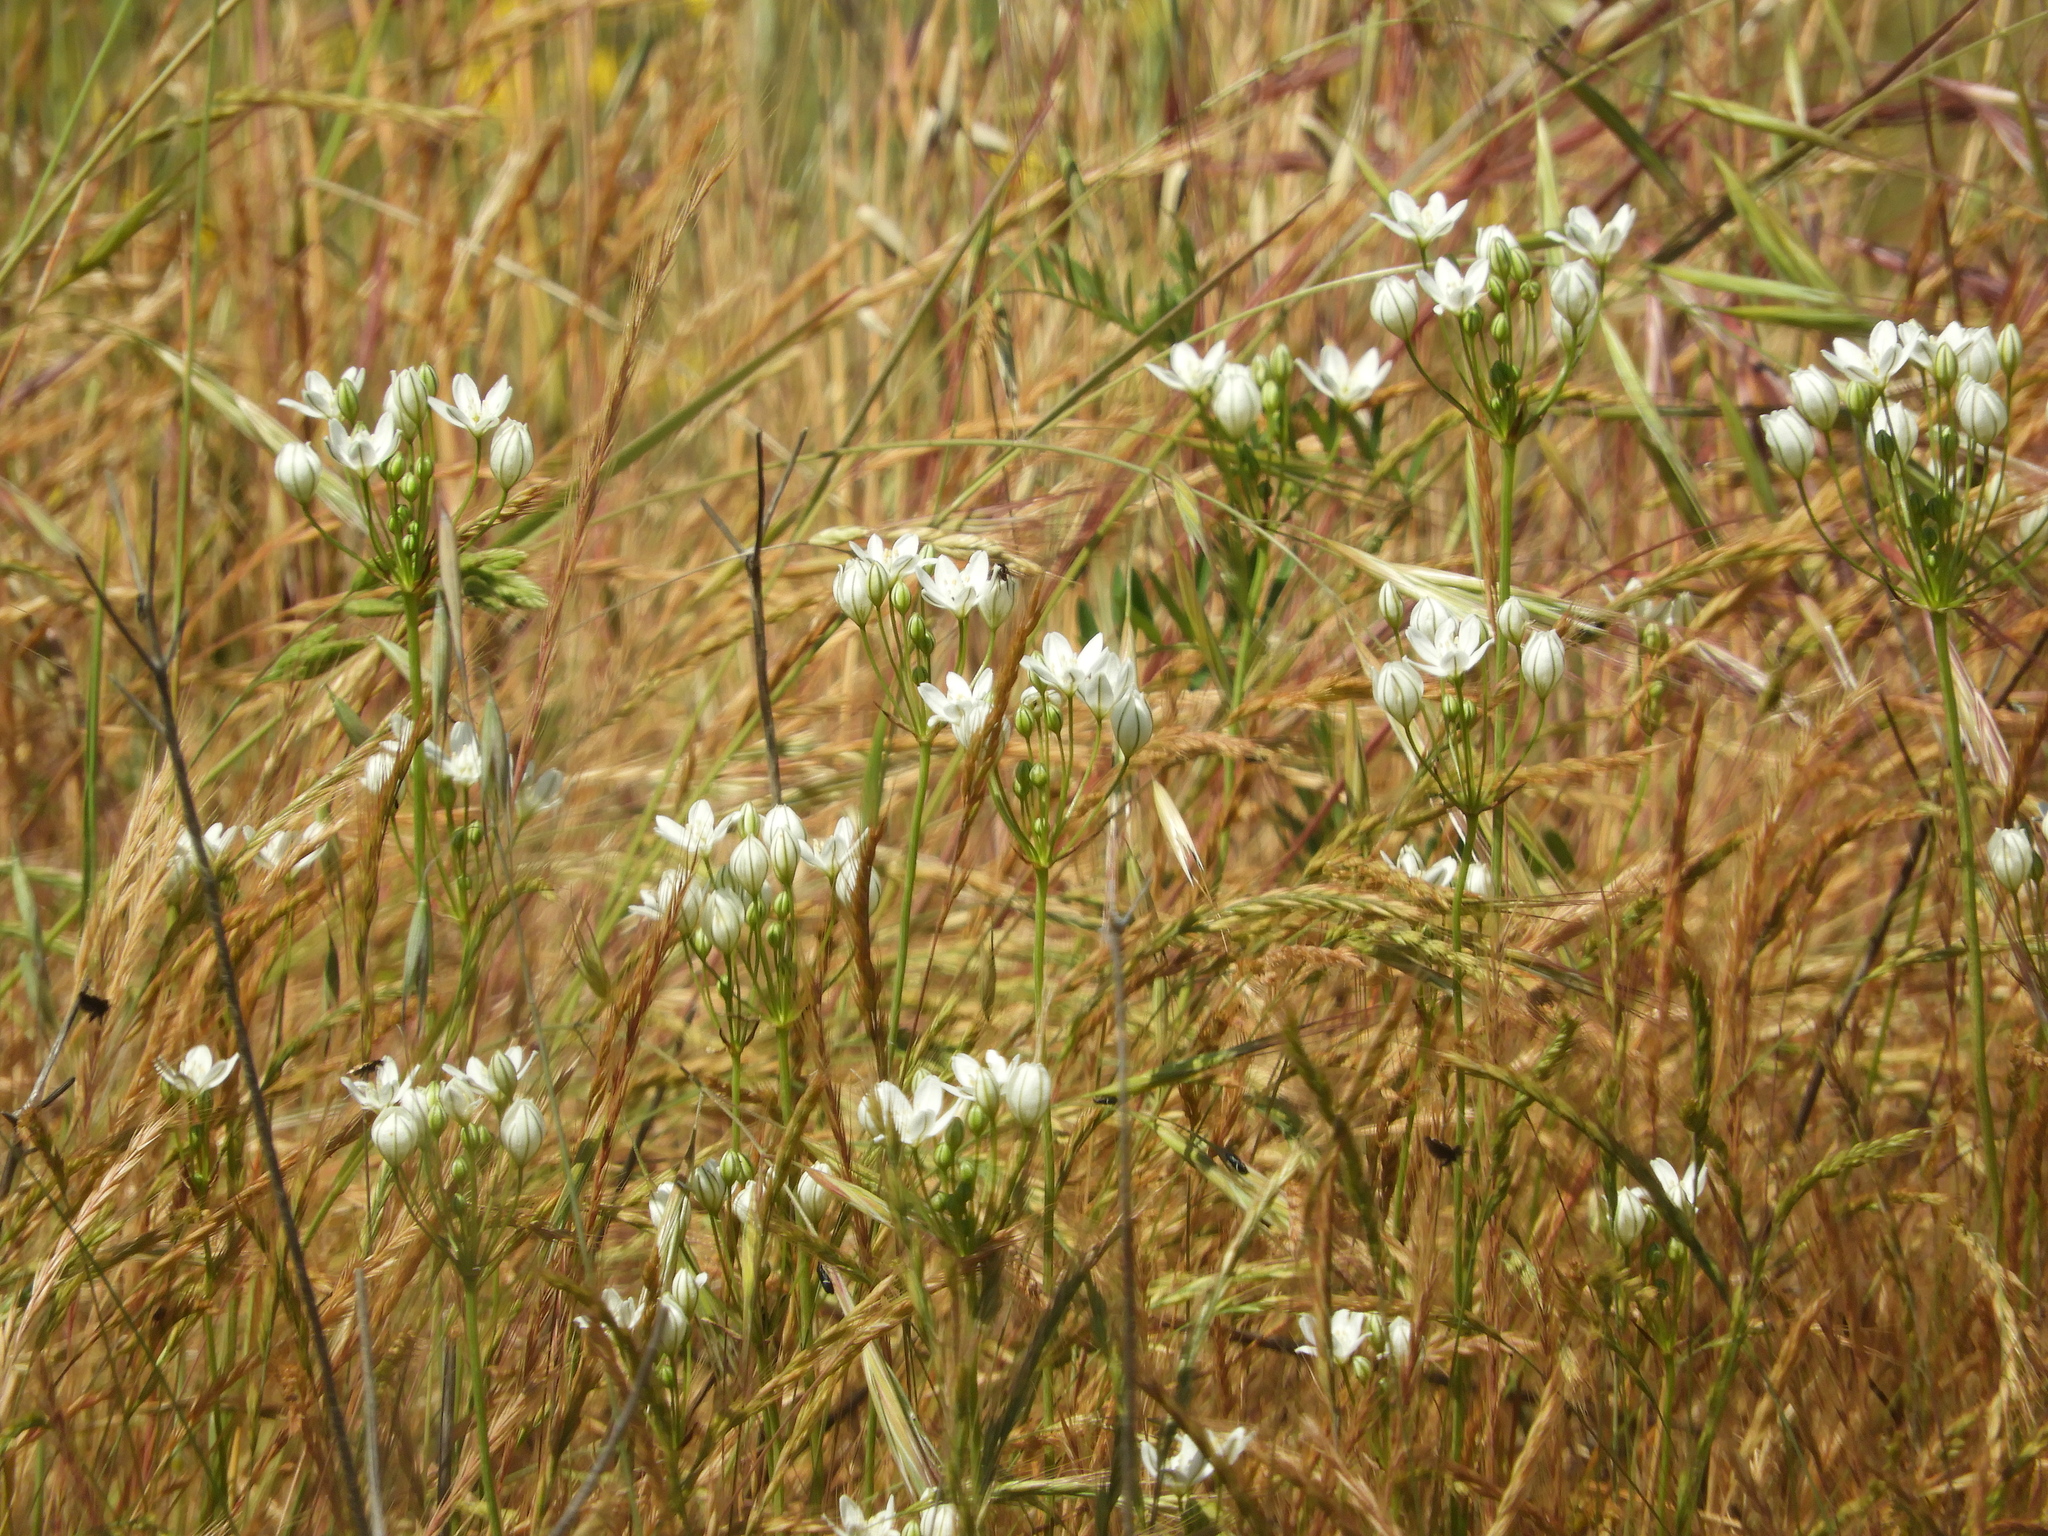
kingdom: Plantae
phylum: Tracheophyta
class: Liliopsida
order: Asparagales
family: Asparagaceae
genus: Triteleia
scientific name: Triteleia hyacinthina
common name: White brodiaea
